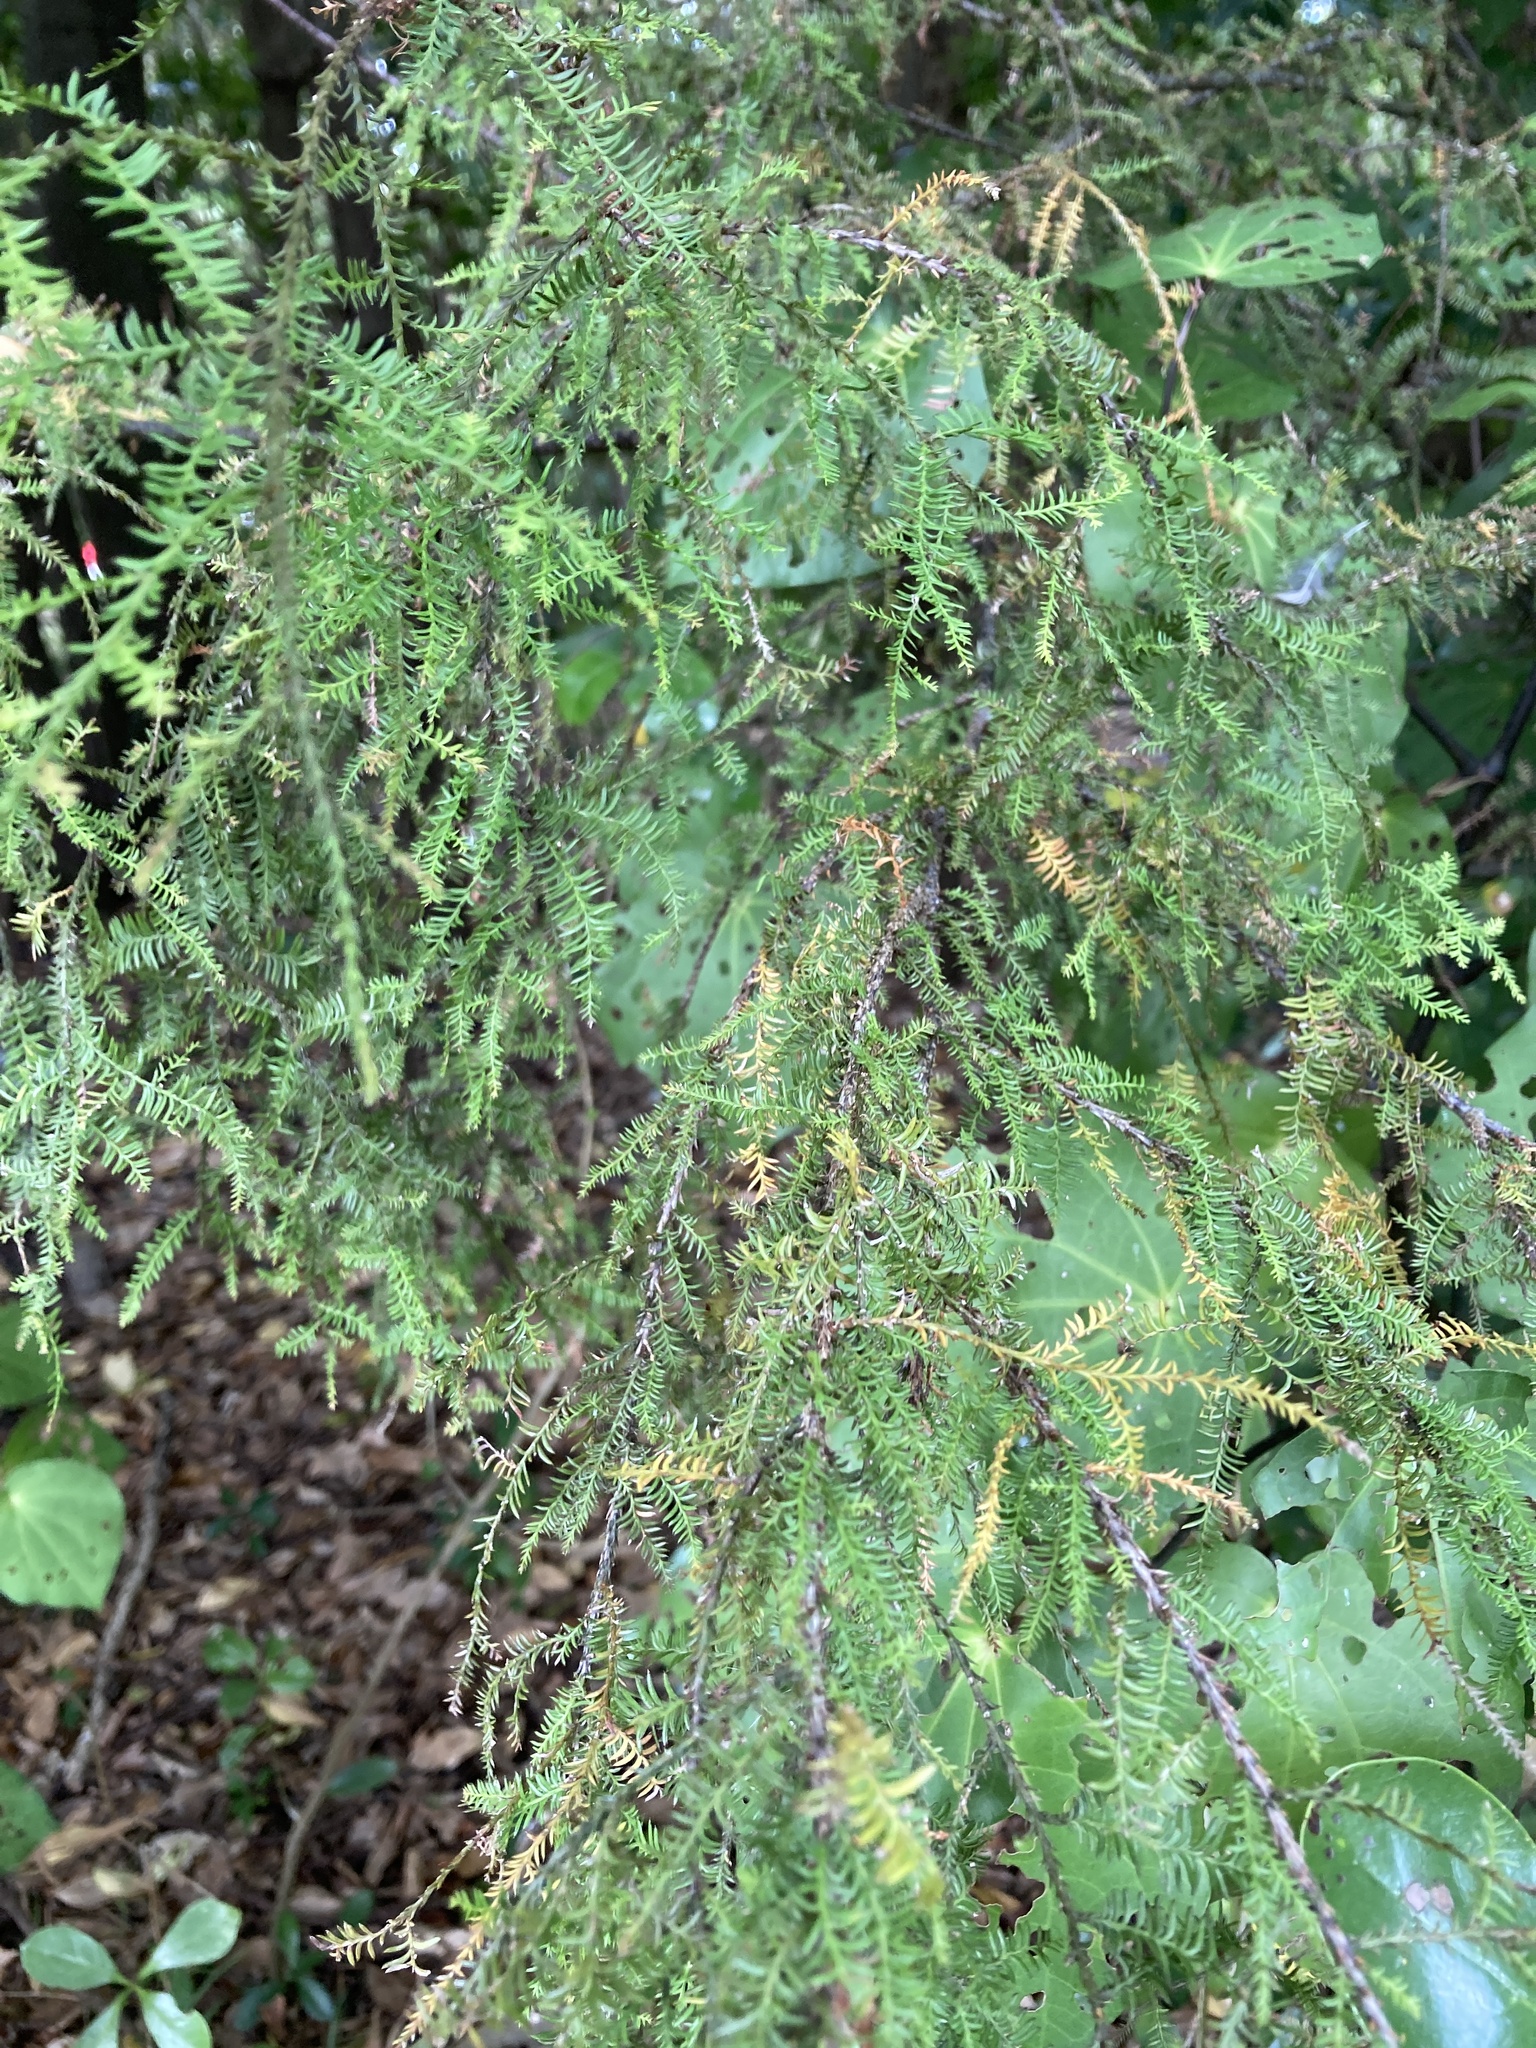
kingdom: Plantae
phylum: Tracheophyta
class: Pinopsida
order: Pinales
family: Podocarpaceae
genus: Dacrycarpus
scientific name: Dacrycarpus dacrydioides
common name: White pine
